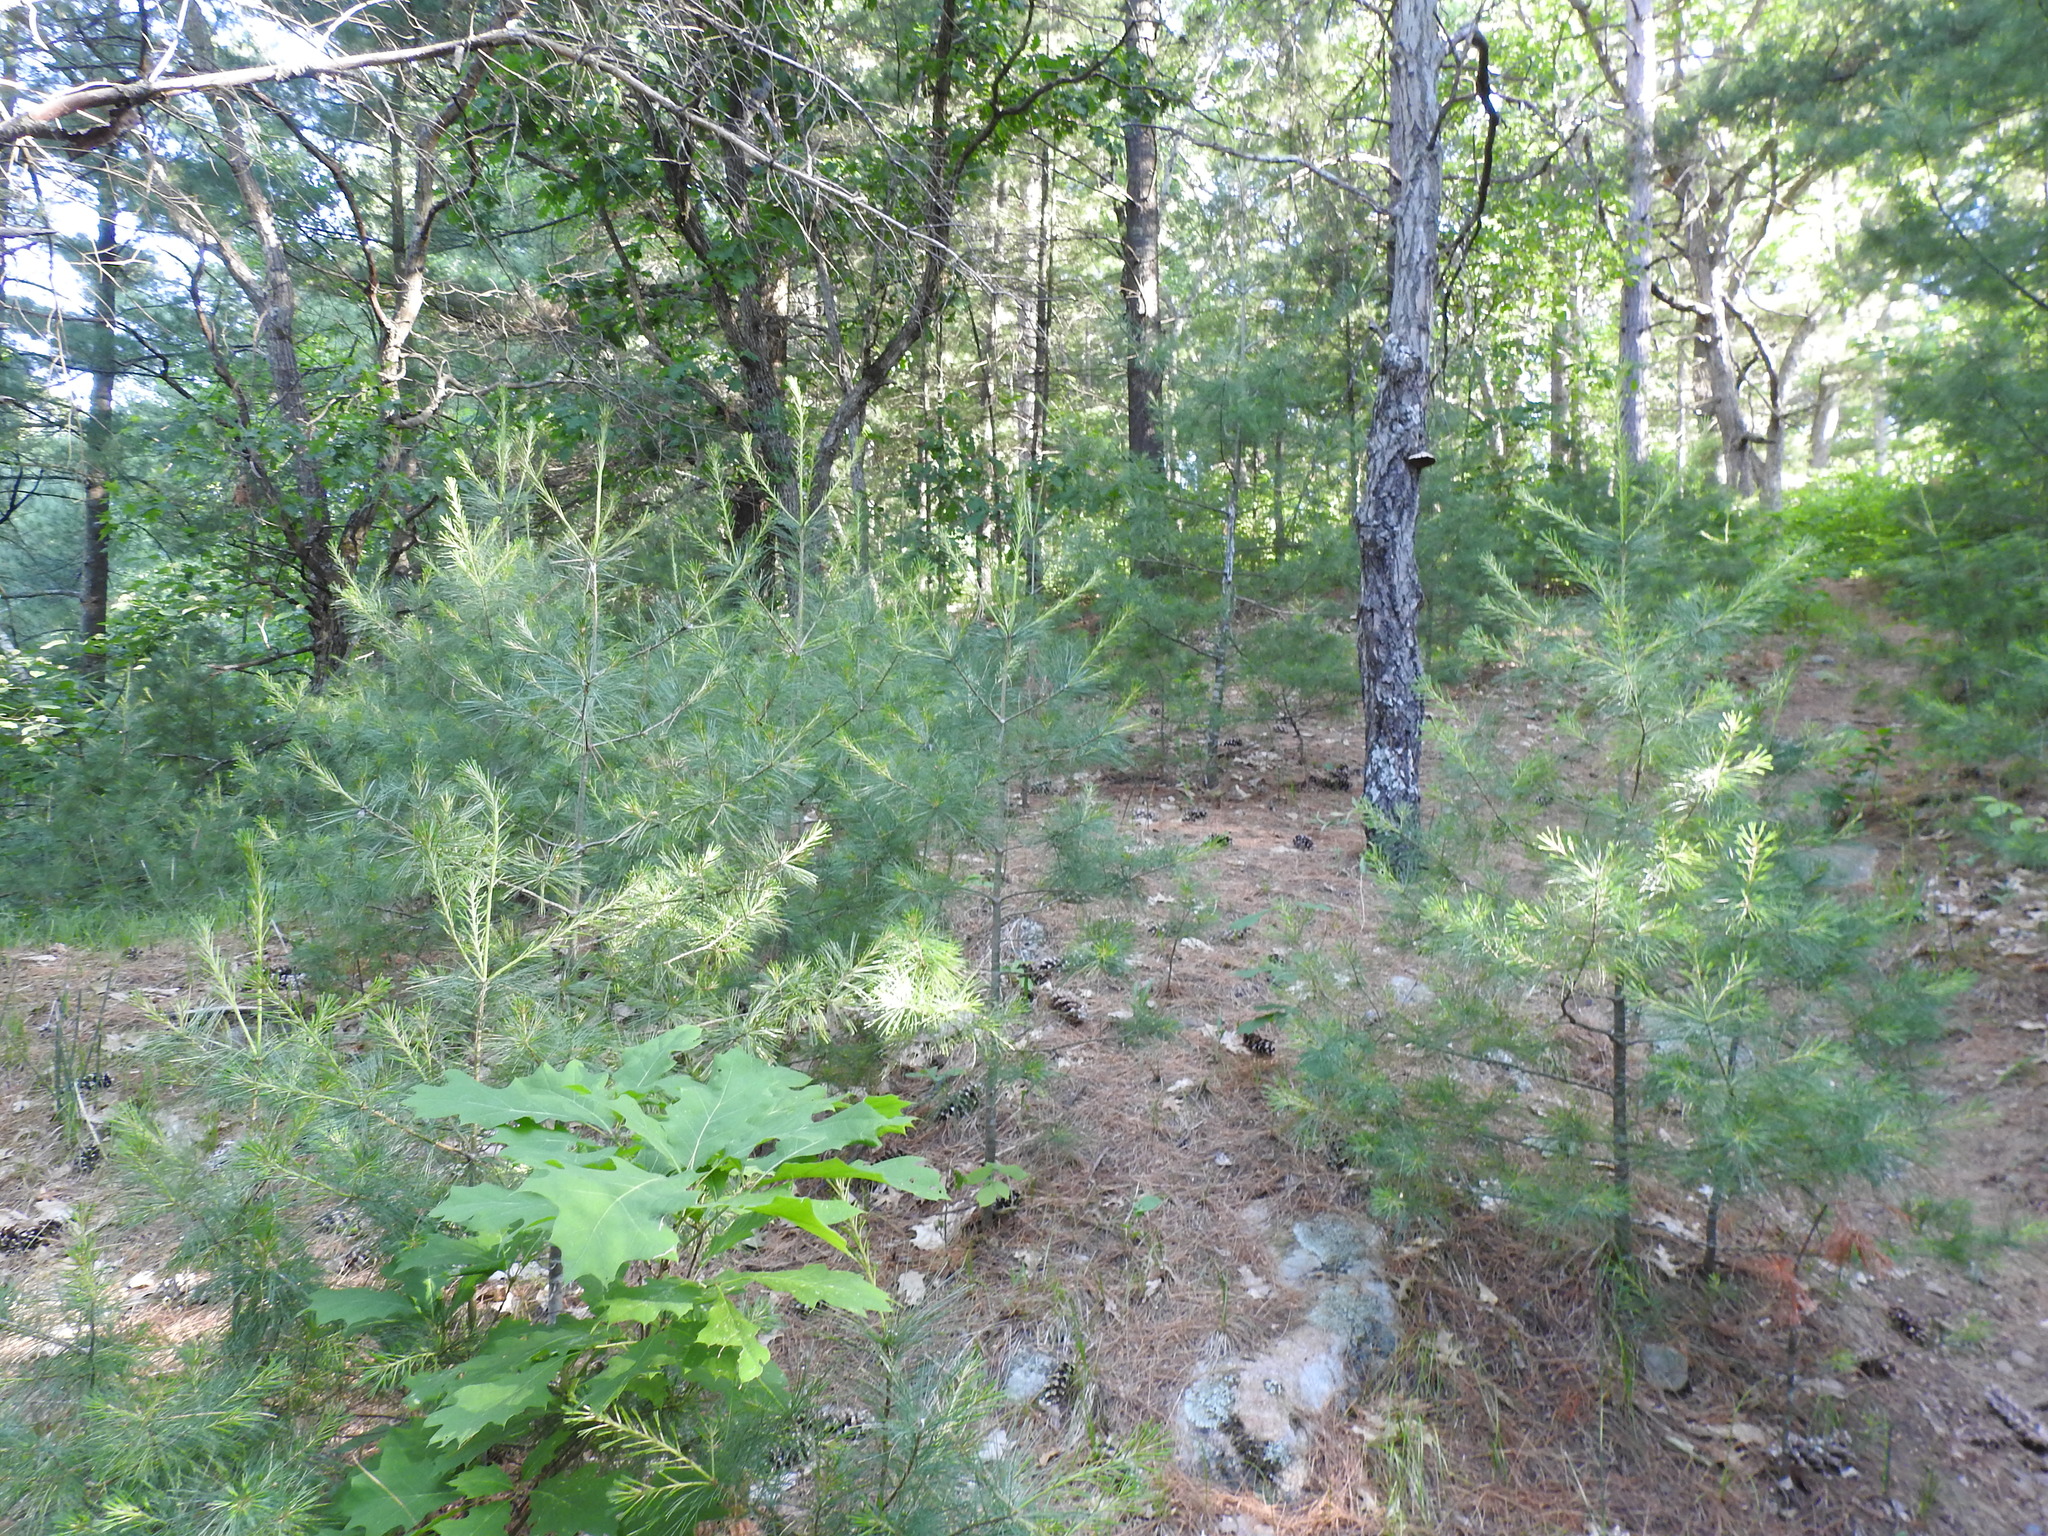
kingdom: Plantae
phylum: Tracheophyta
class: Pinopsida
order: Pinales
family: Pinaceae
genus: Pinus
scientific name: Pinus strobus
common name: Weymouth pine
